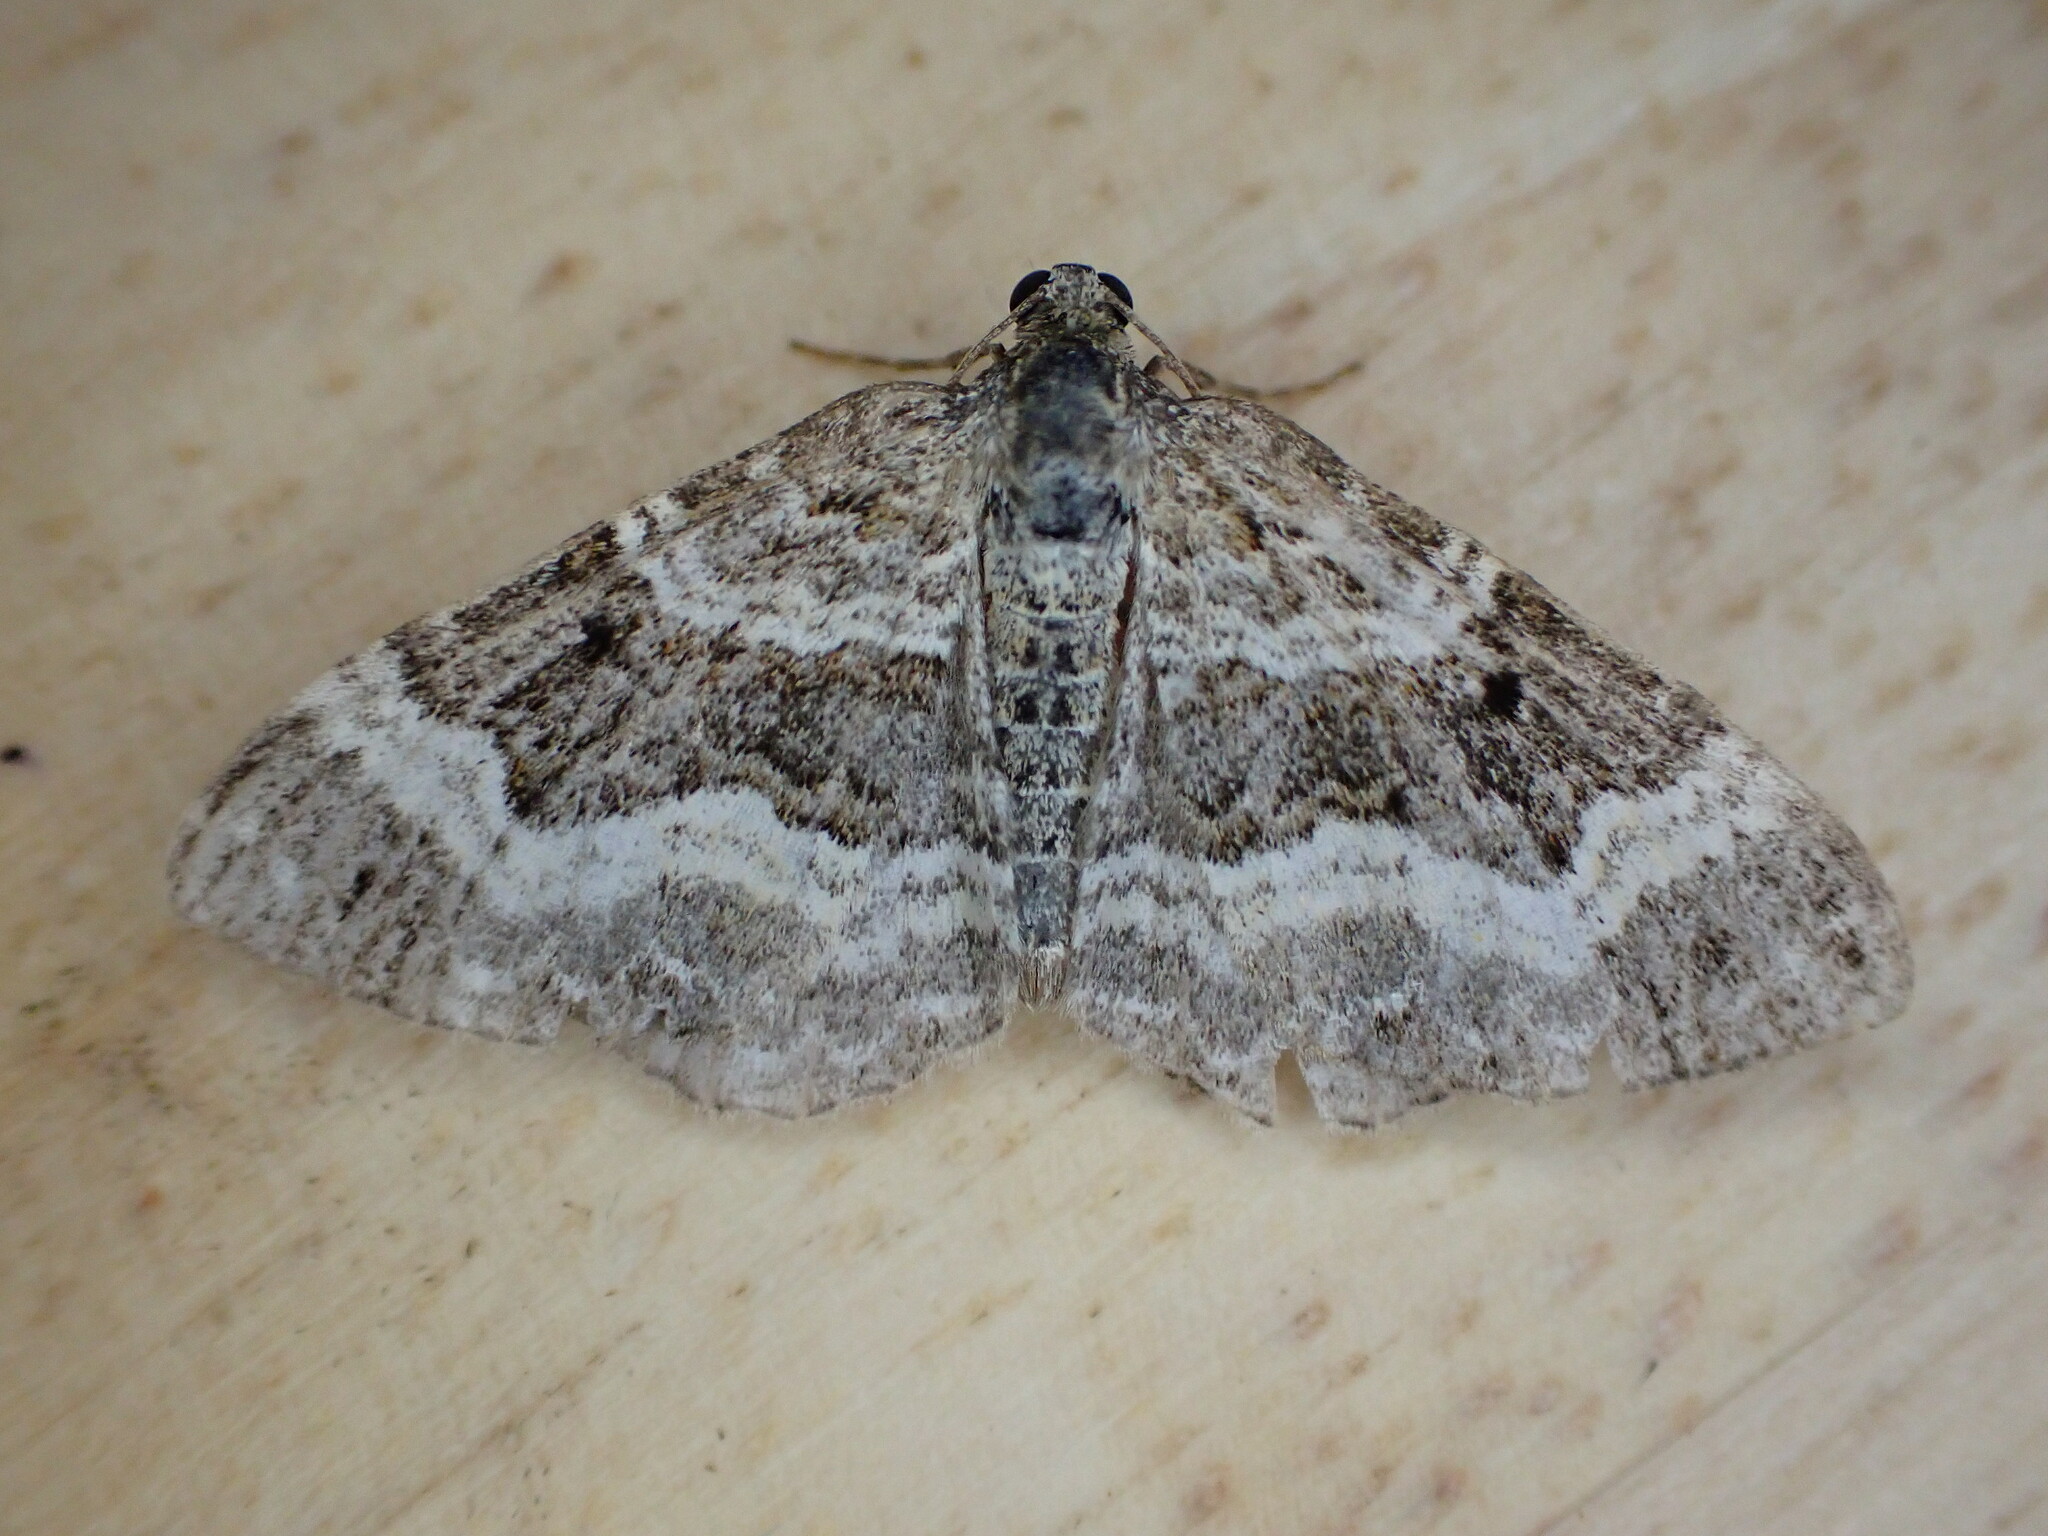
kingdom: Animalia
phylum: Arthropoda
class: Insecta
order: Lepidoptera
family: Geometridae
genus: Epirrhoe
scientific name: Epirrhoe alternata
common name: Common carpet
